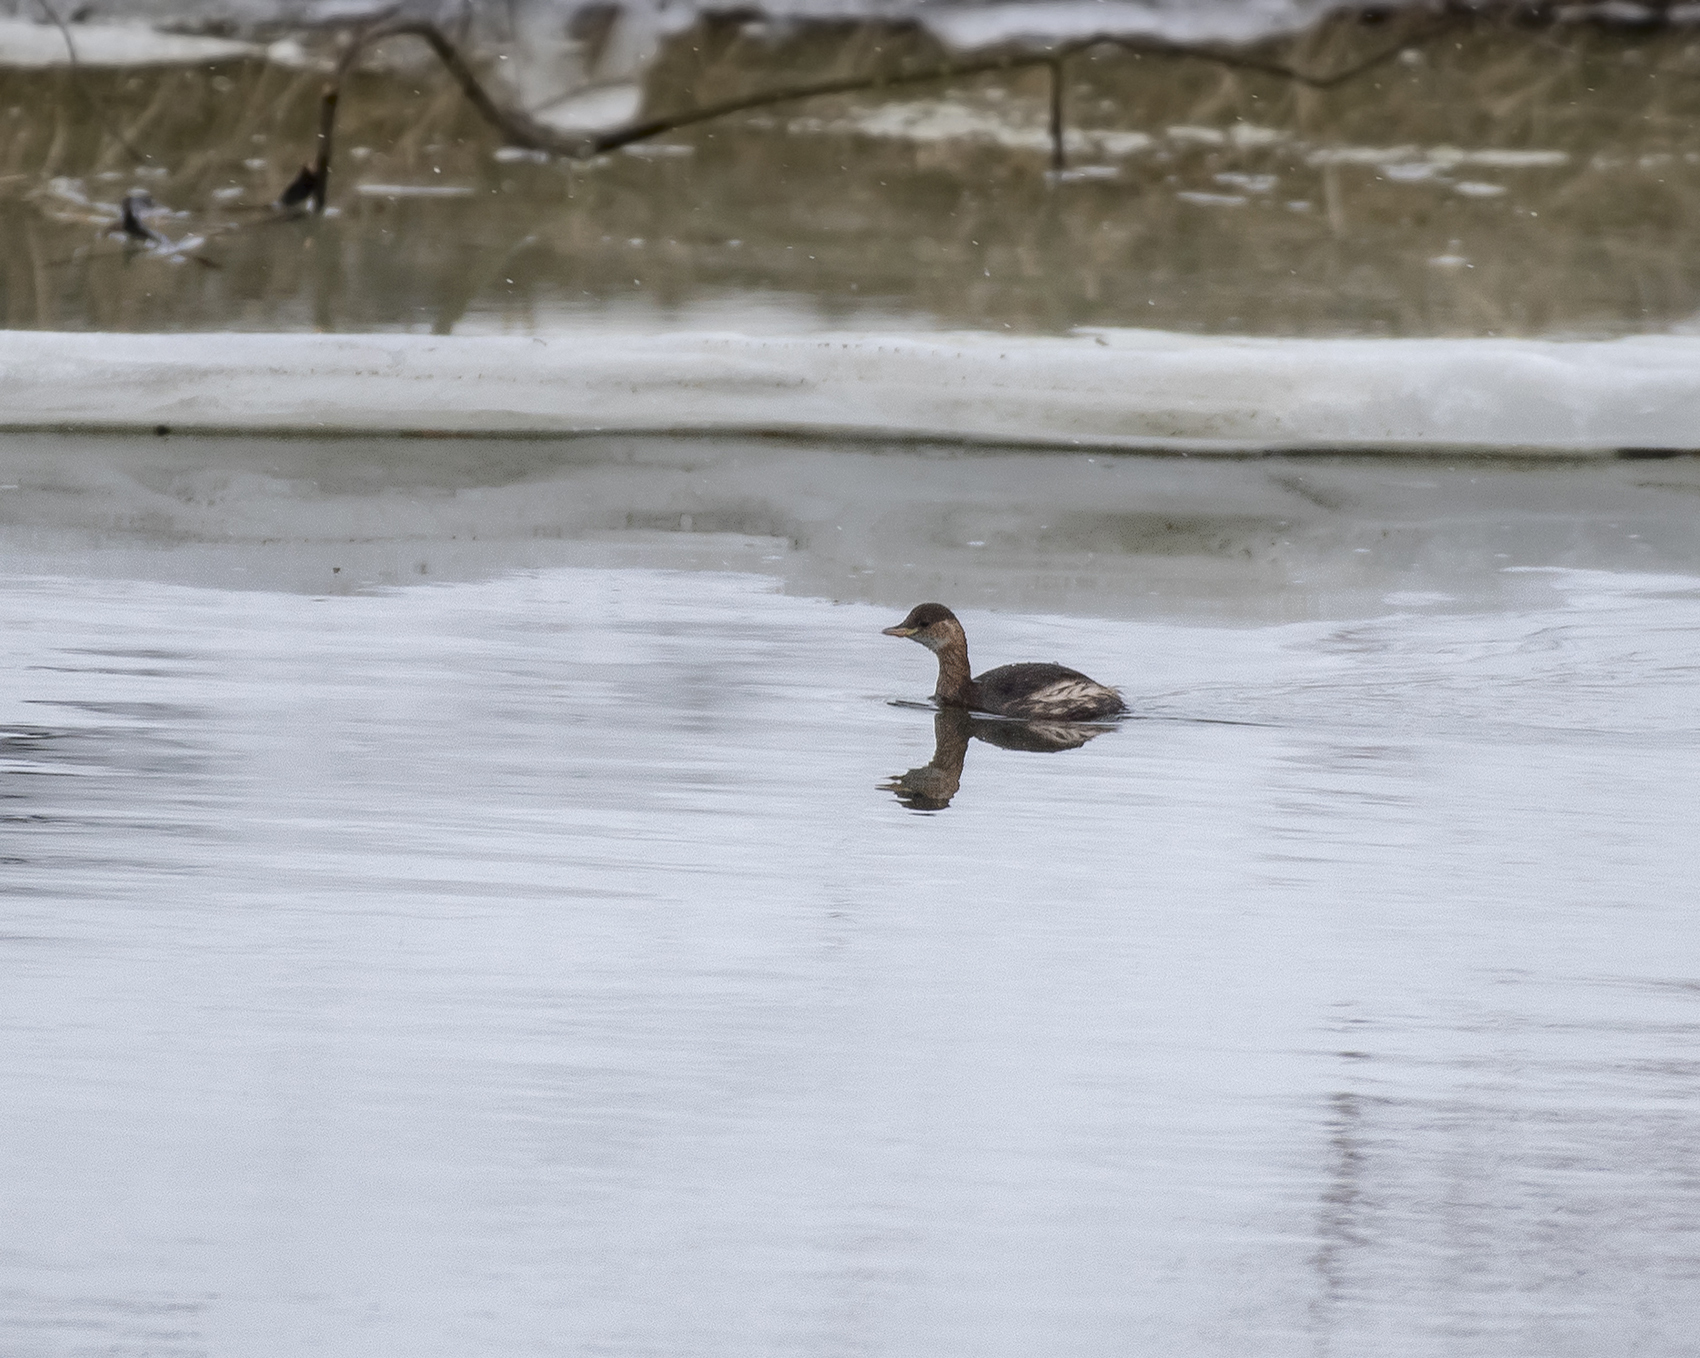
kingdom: Animalia
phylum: Chordata
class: Aves
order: Podicipediformes
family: Podicipedidae
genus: Tachybaptus
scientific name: Tachybaptus ruficollis
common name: Little grebe
